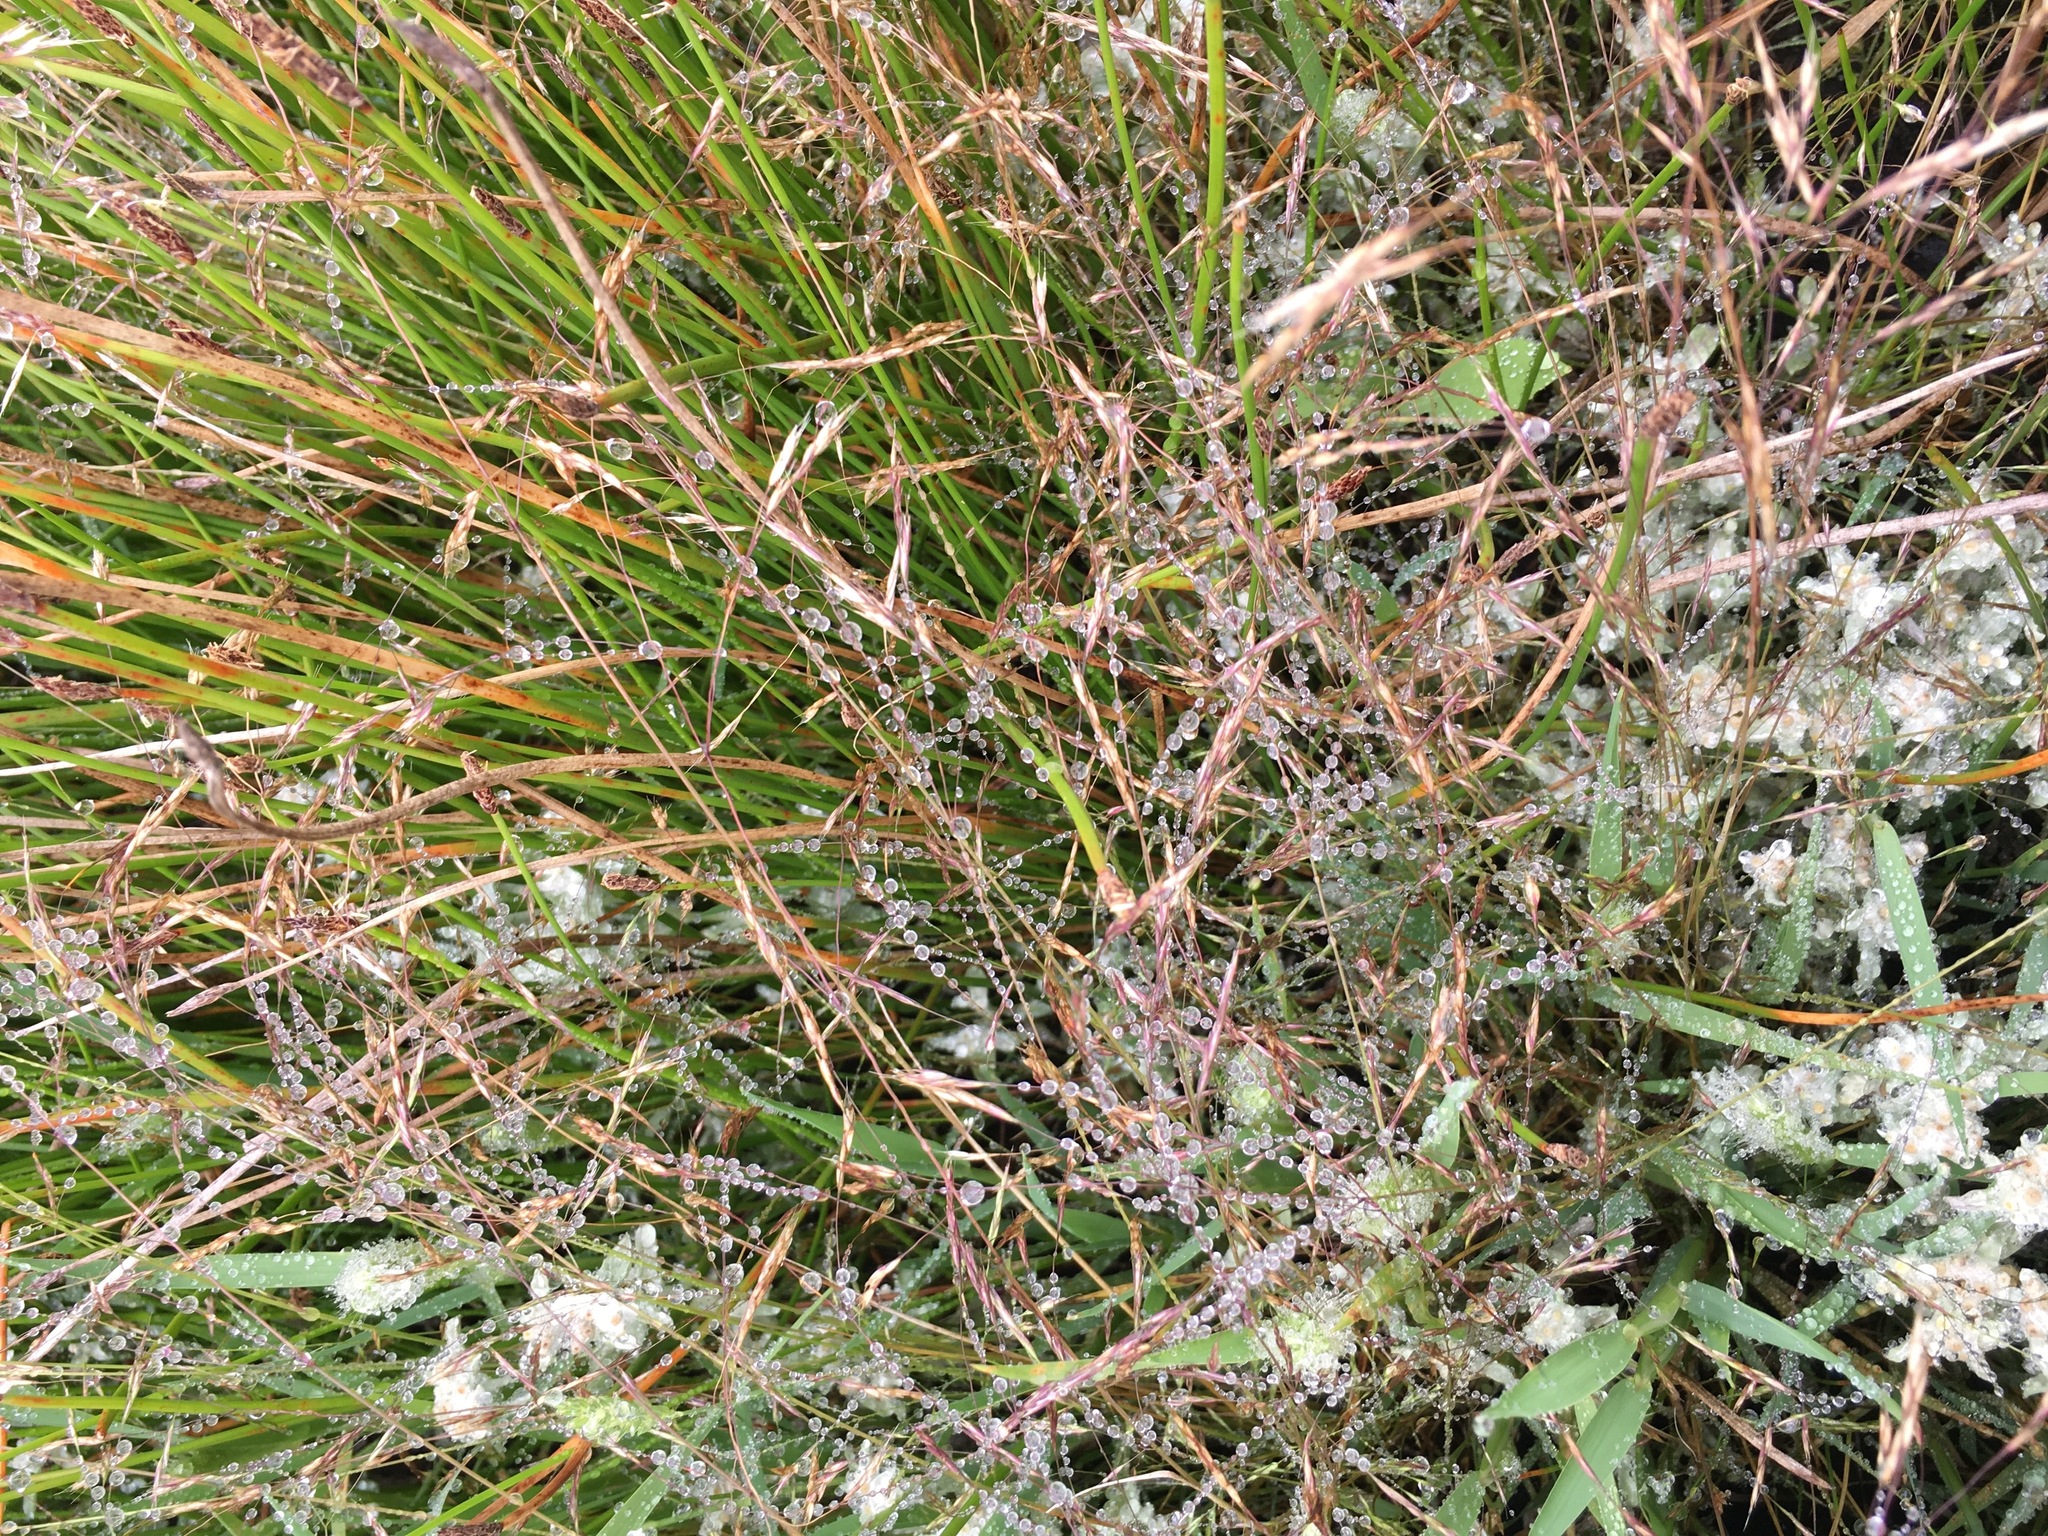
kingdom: Plantae
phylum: Tracheophyta
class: Liliopsida
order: Poales
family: Poaceae
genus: Deschampsia
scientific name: Deschampsia danthonioides
